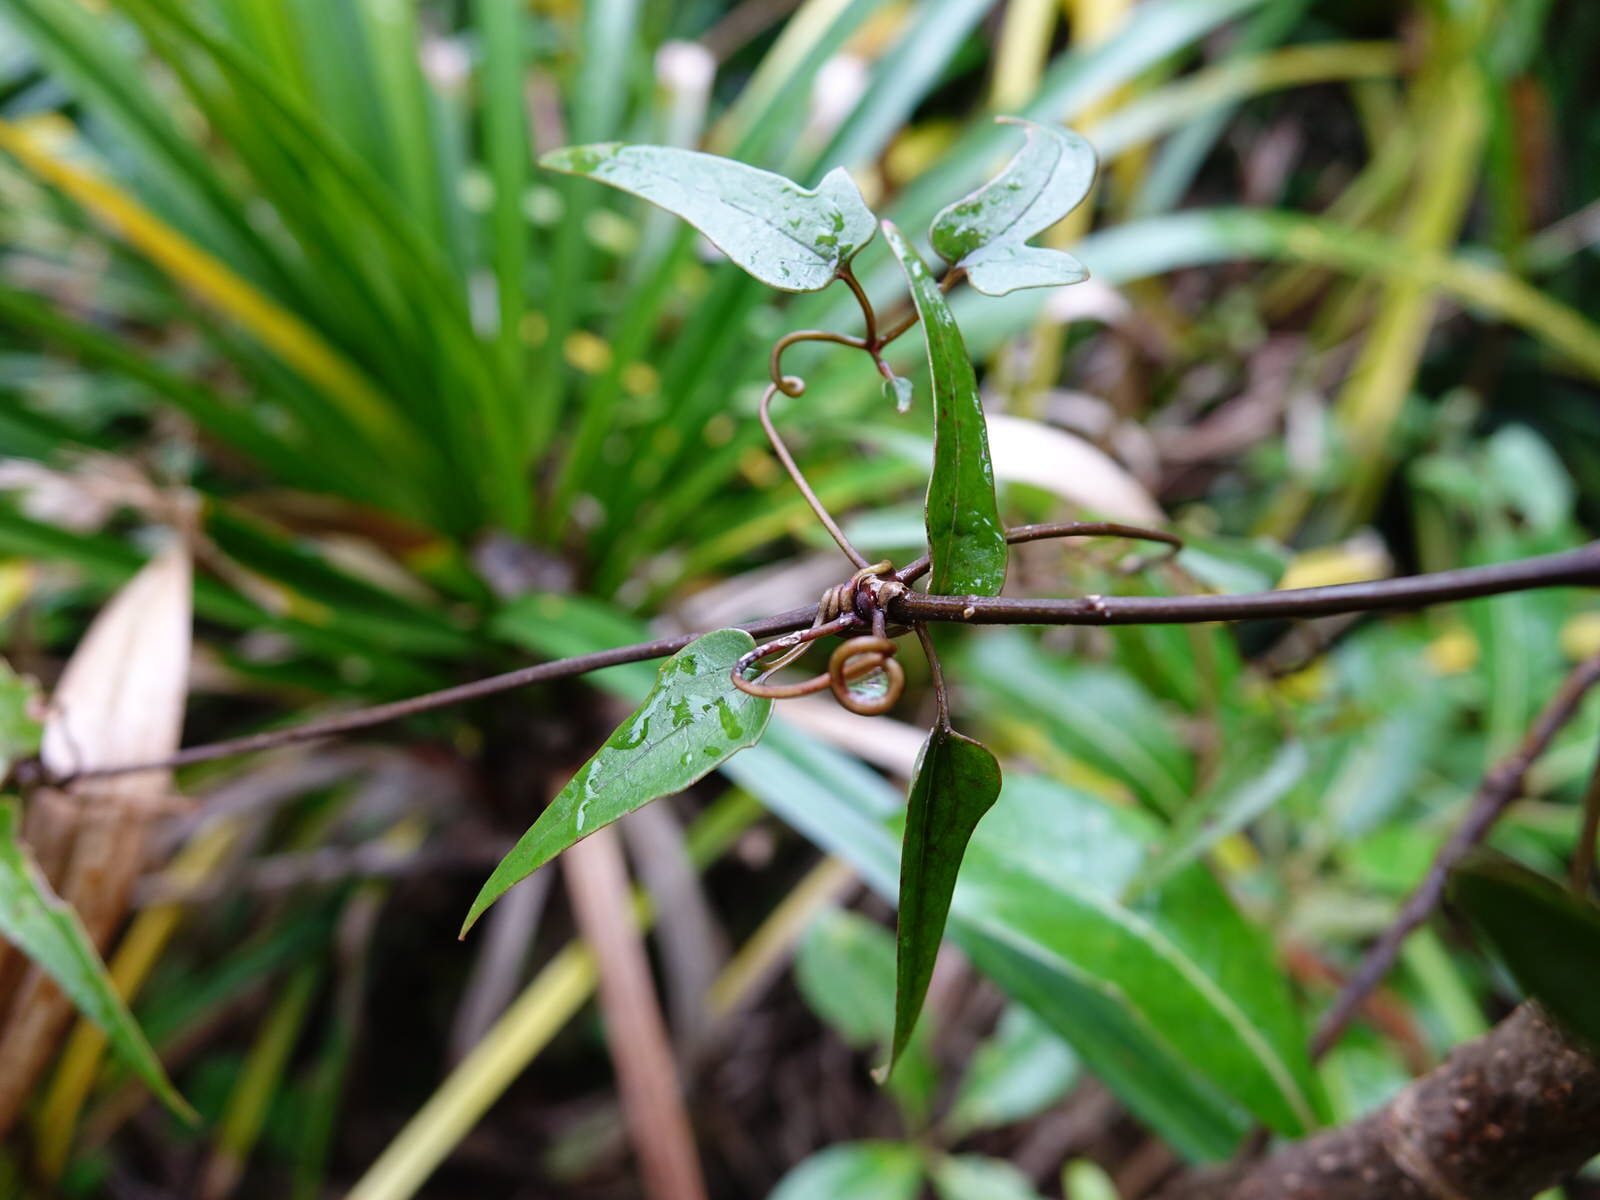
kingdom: Plantae
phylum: Tracheophyta
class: Magnoliopsida
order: Ranunculales
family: Ranunculaceae
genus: Clematis
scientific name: Clematis paniculata
